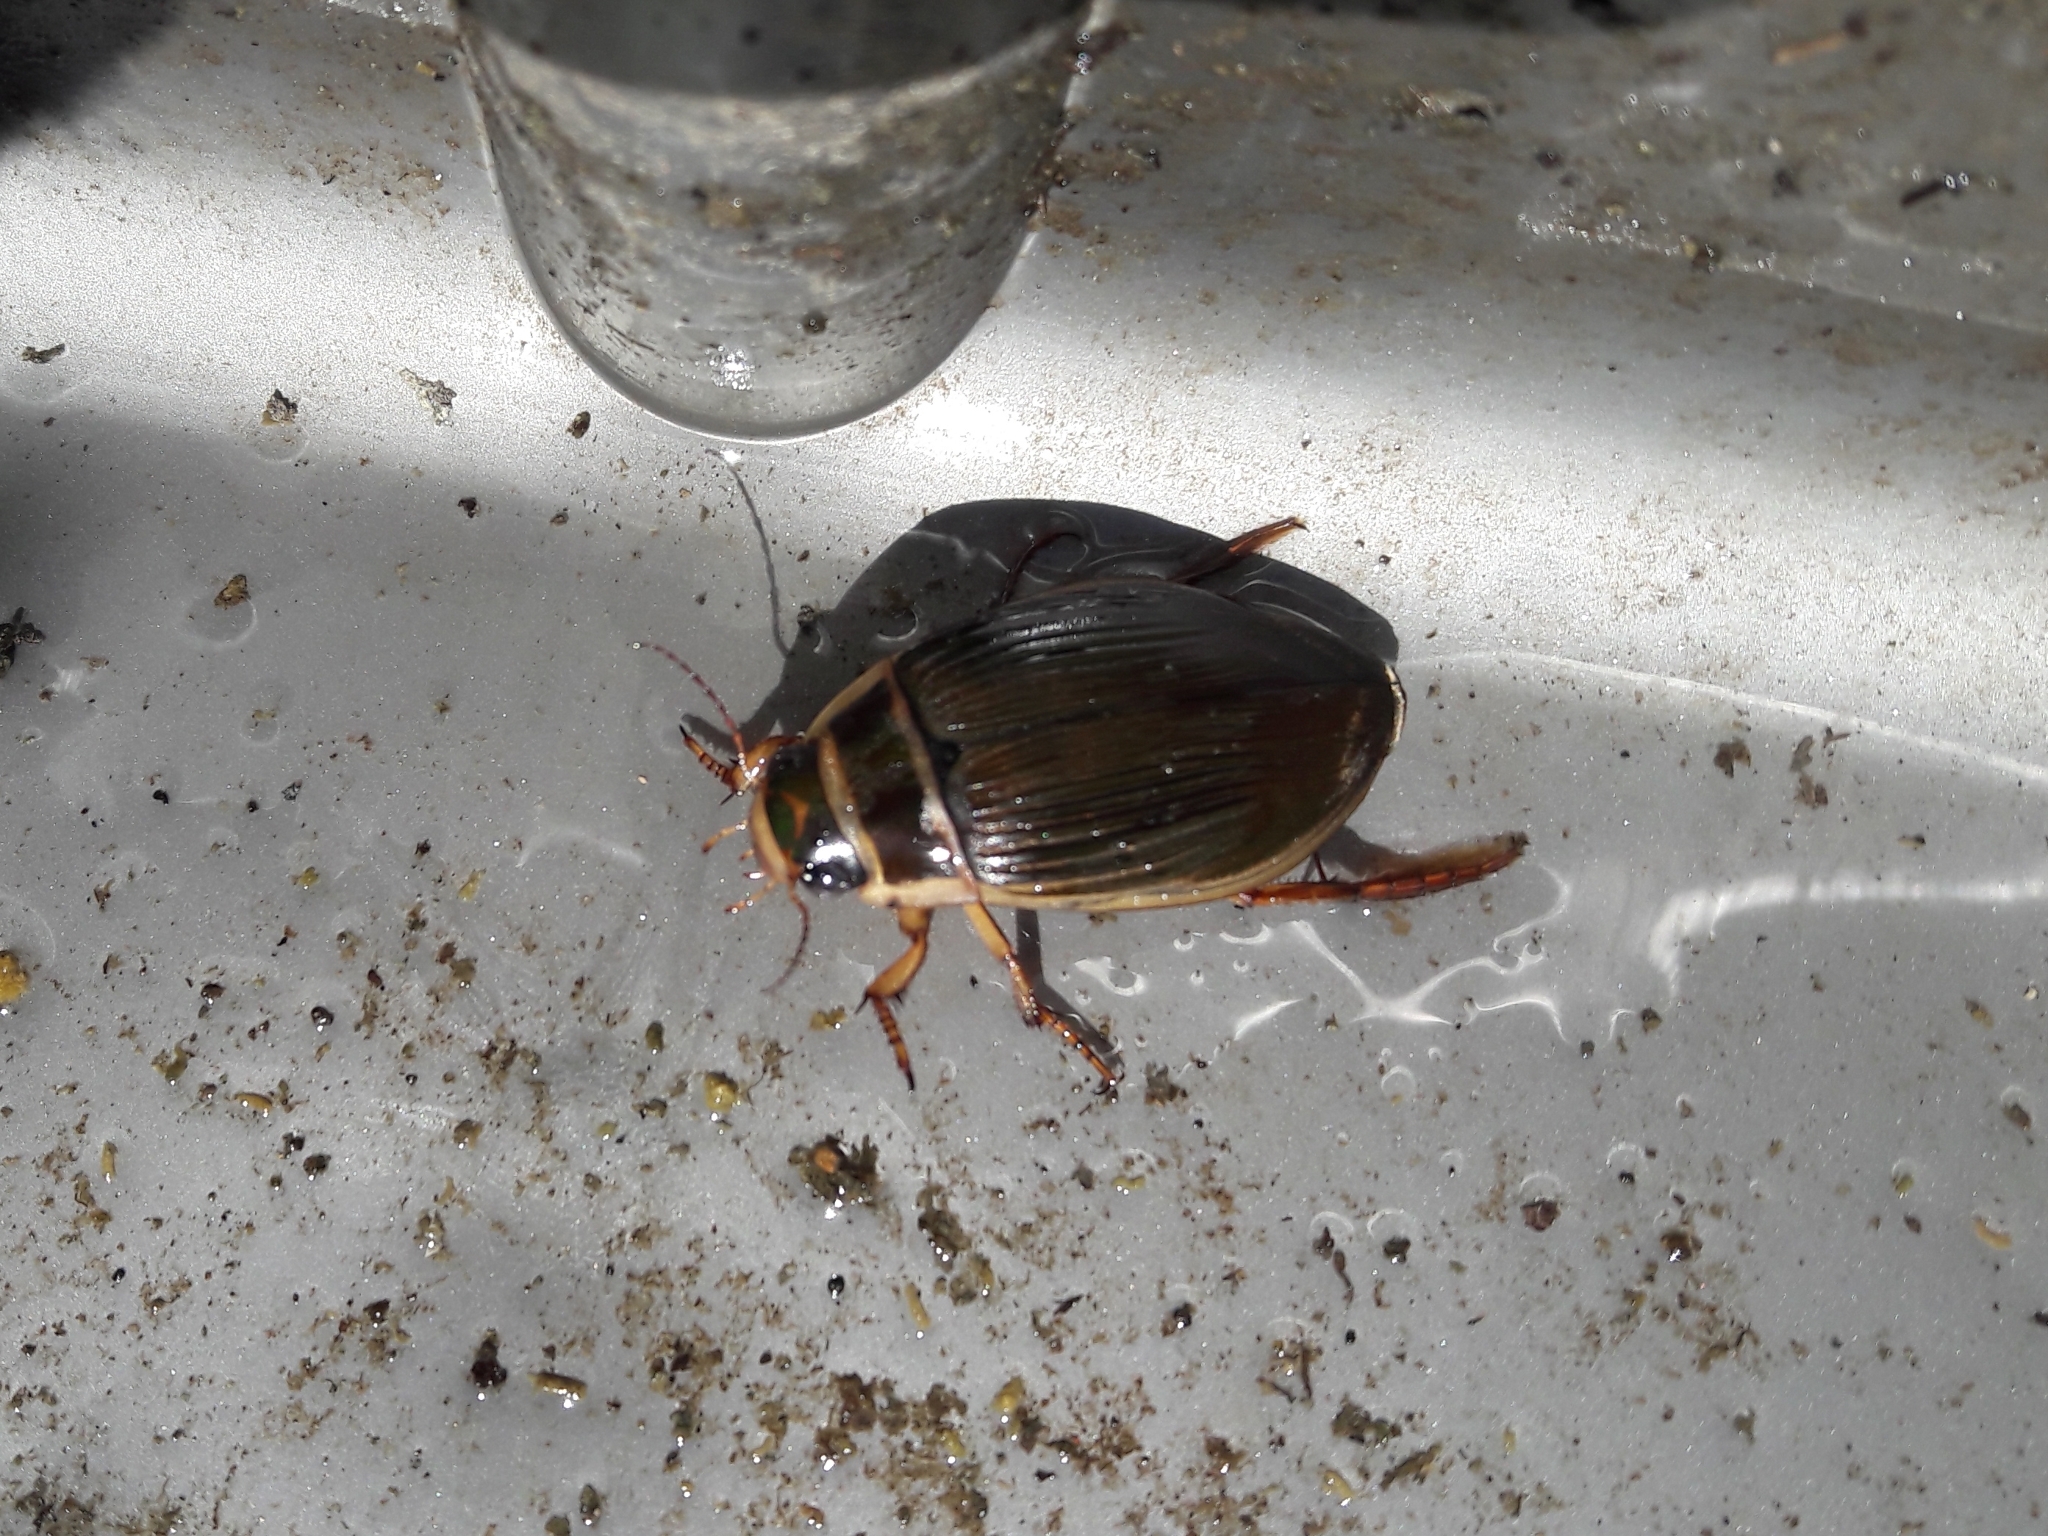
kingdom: Animalia
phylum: Arthropoda
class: Insecta
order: Coleoptera
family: Dytiscidae
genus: Dytiscus
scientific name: Dytiscus marginalis
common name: Great water beetle
